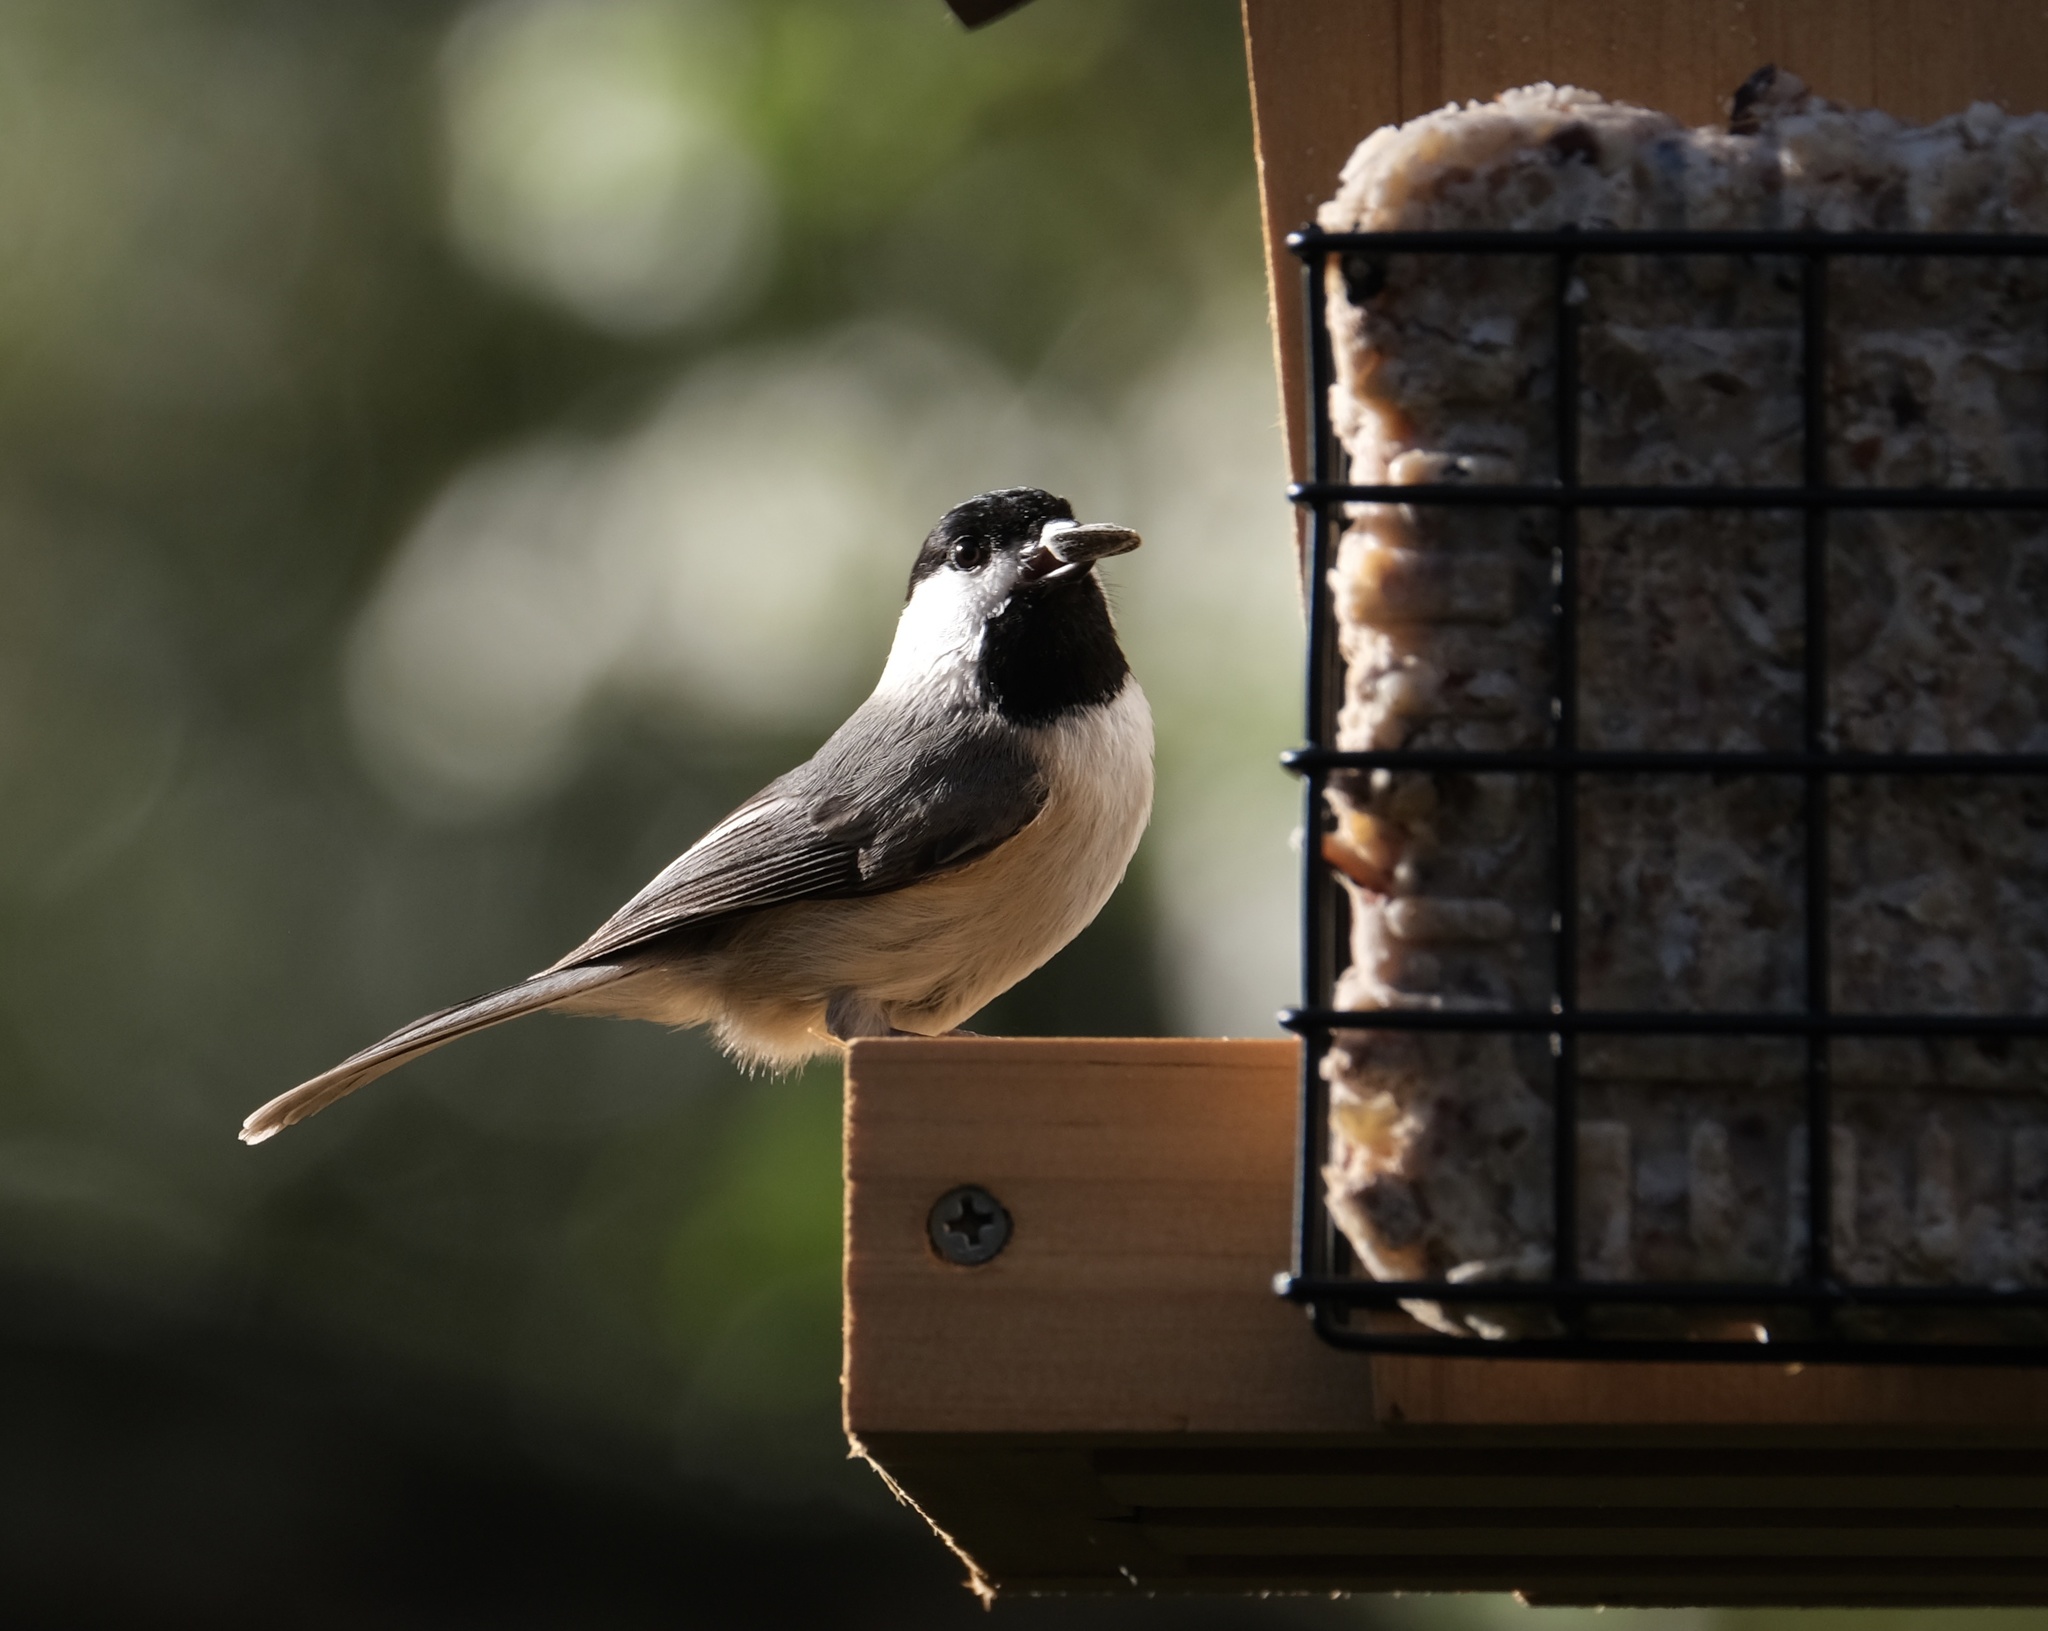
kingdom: Animalia
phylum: Chordata
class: Aves
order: Passeriformes
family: Paridae
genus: Poecile
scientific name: Poecile carolinensis
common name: Carolina chickadee
